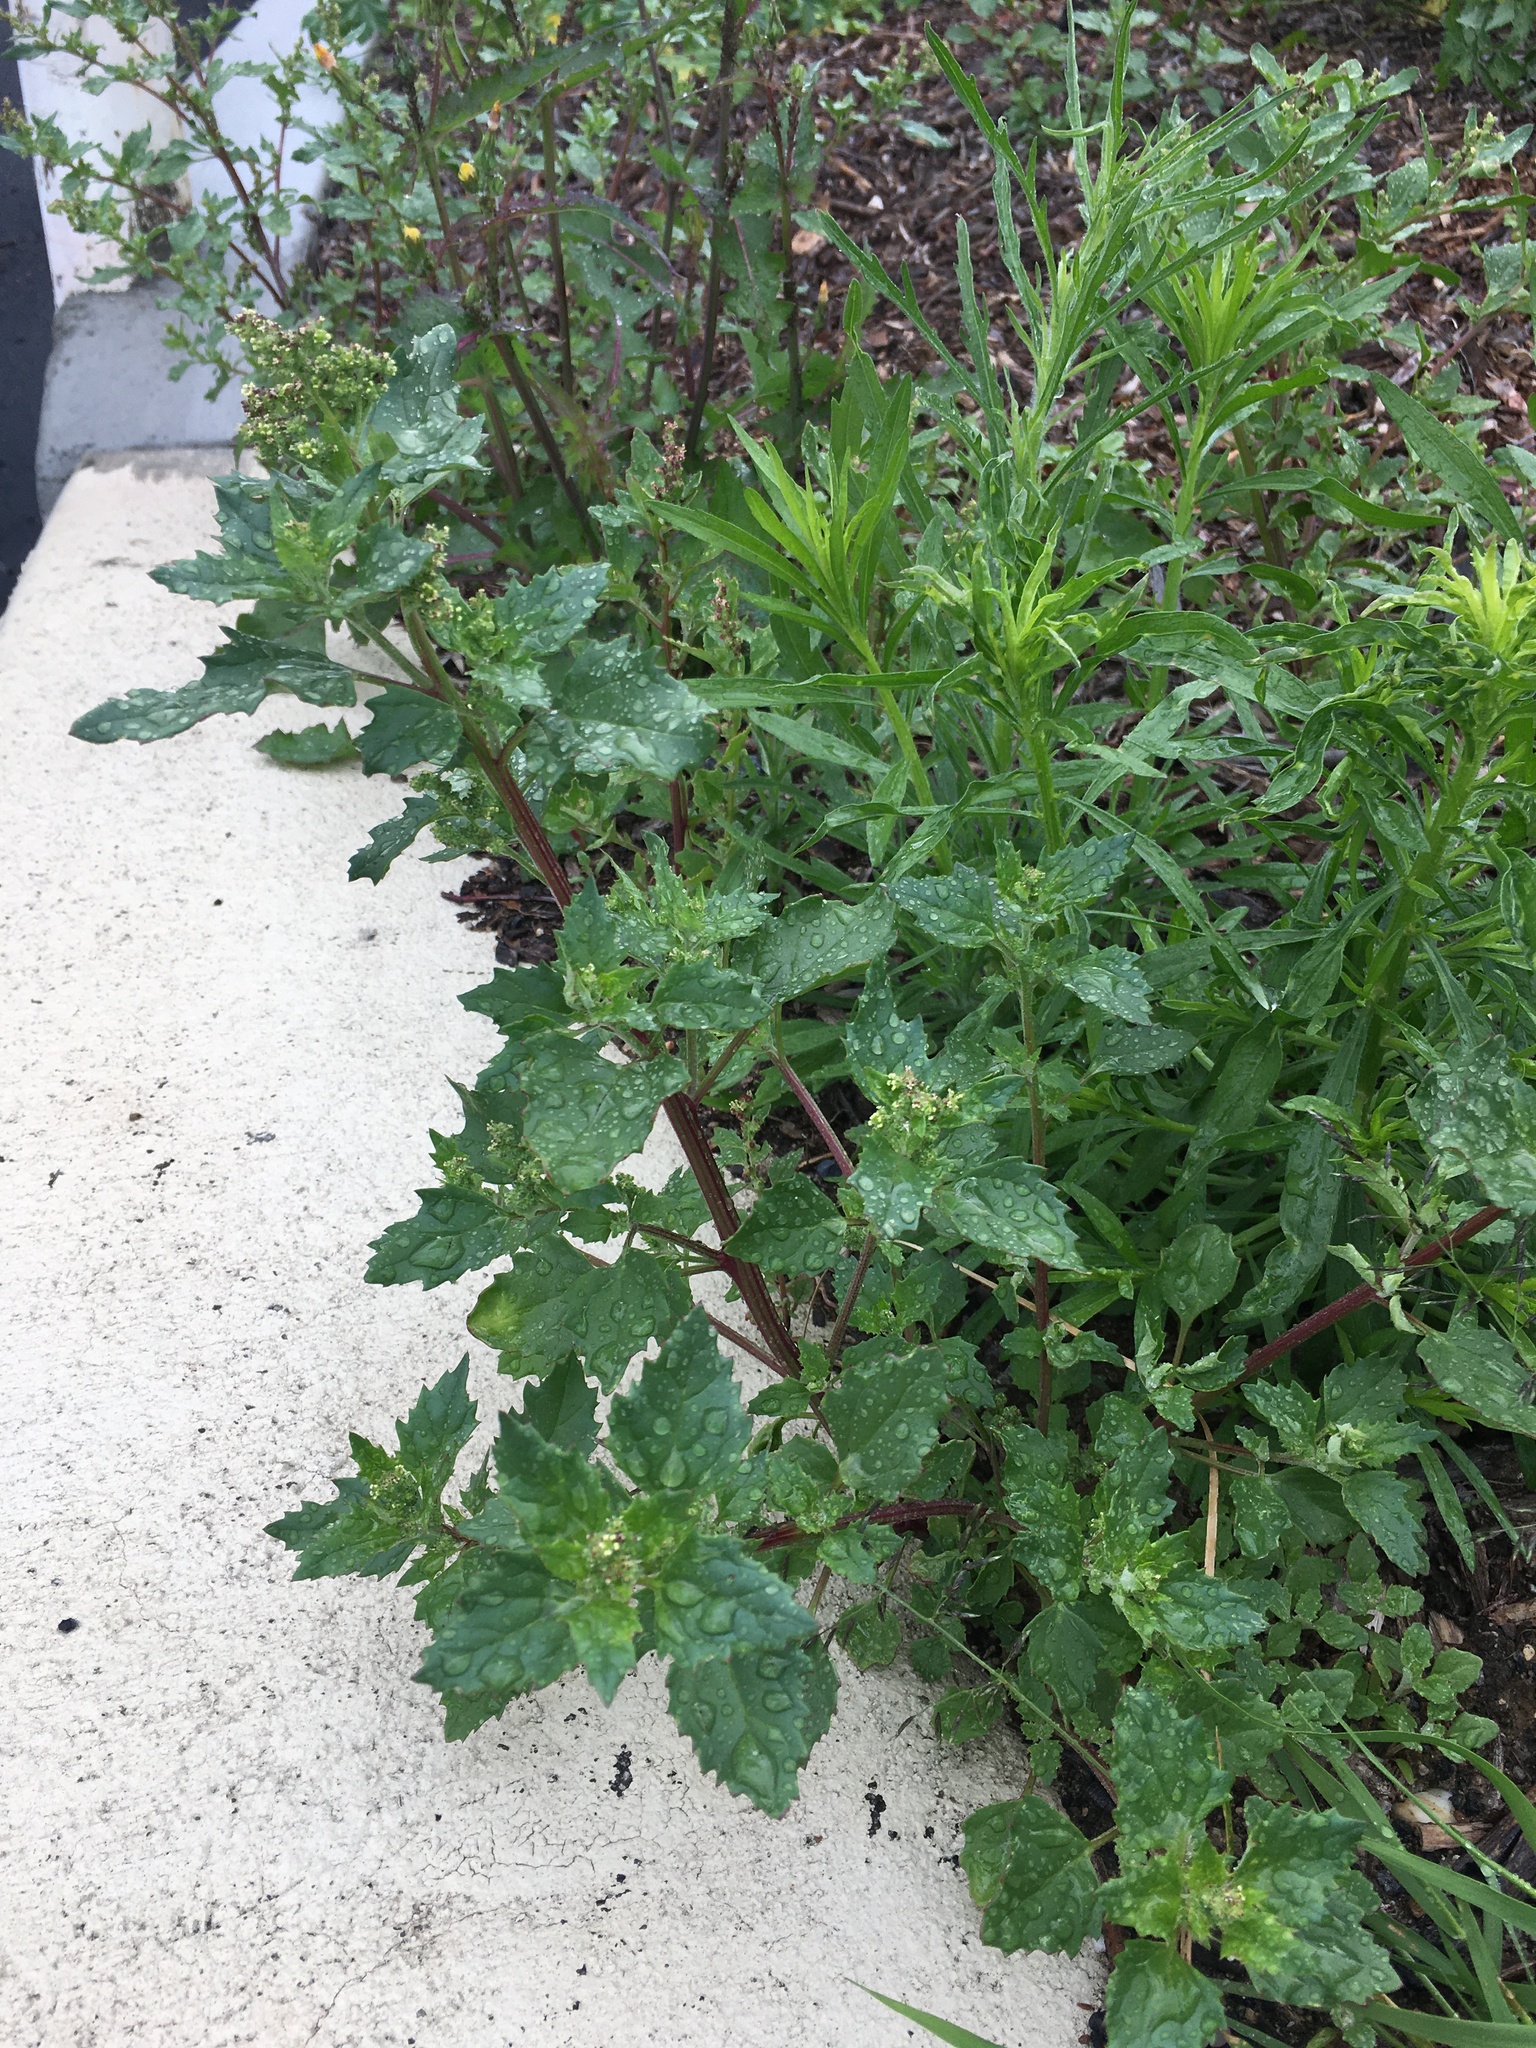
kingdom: Plantae
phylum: Tracheophyta
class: Magnoliopsida
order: Caryophyllales
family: Amaranthaceae
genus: Chenopodiastrum
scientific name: Chenopodiastrum murale
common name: Sowbane
